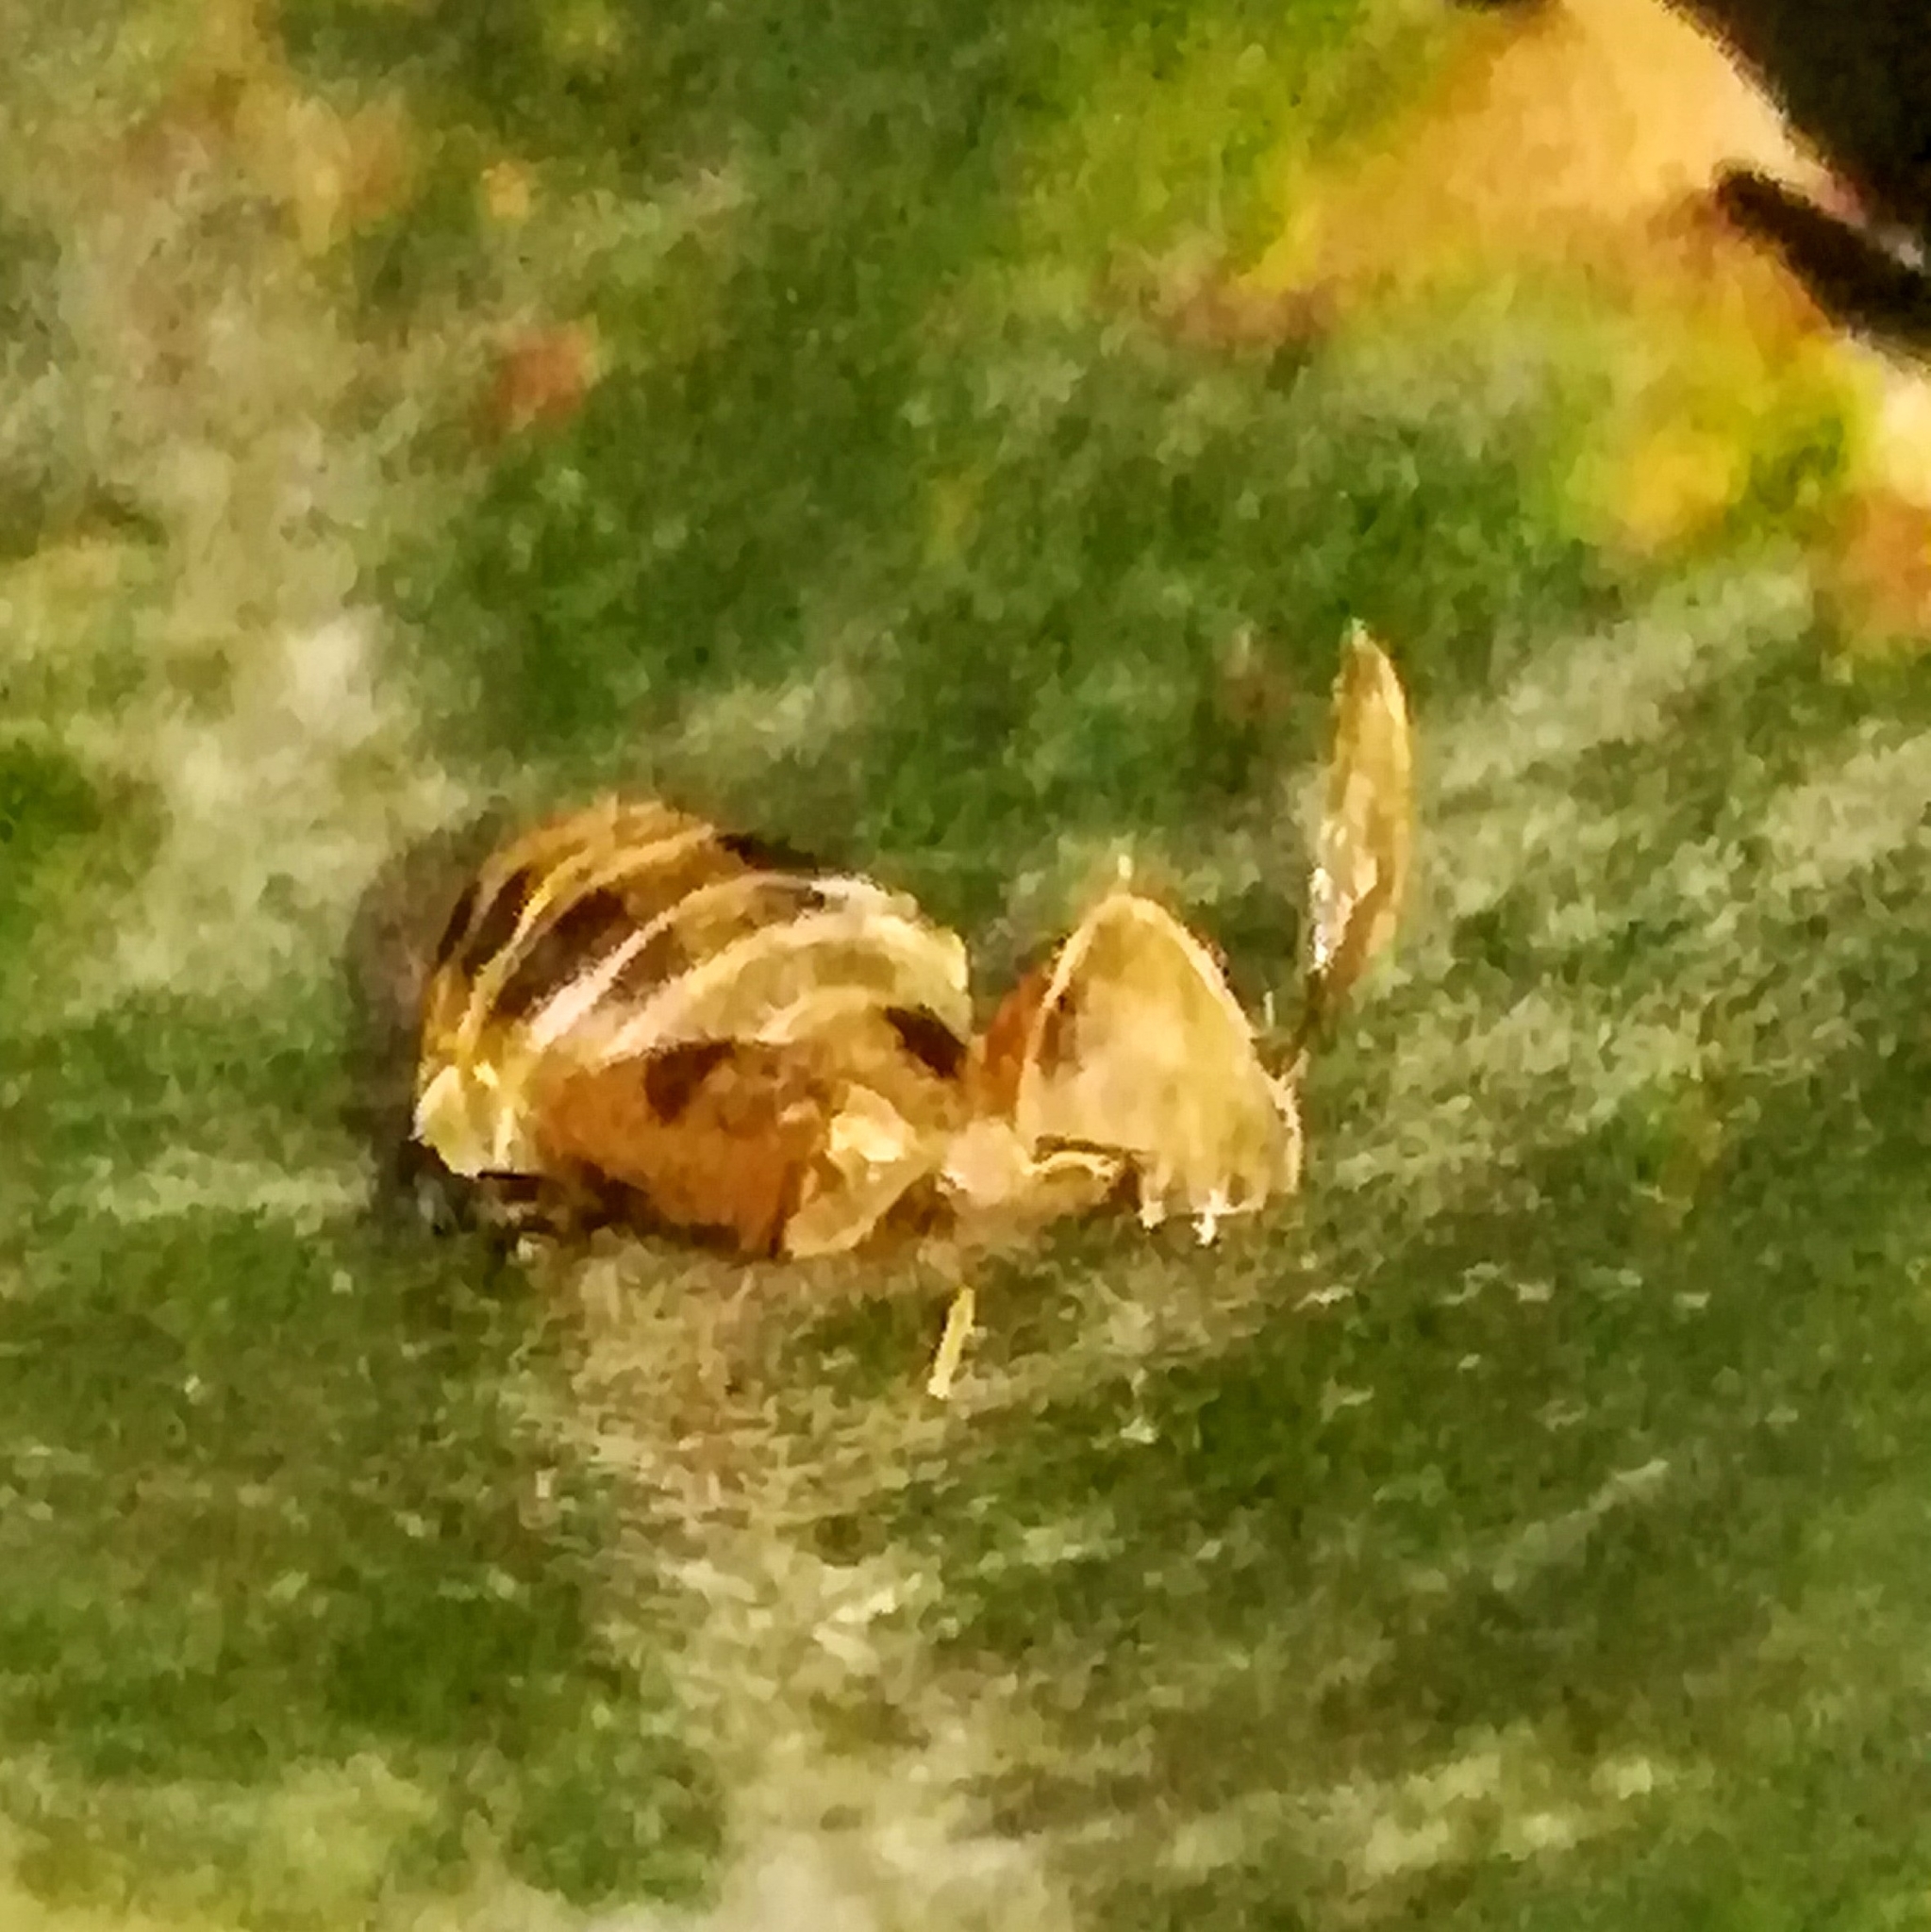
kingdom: Animalia
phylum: Arthropoda
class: Insecta
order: Coleoptera
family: Coccinellidae
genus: Harmonia
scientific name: Harmonia axyridis
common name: Harlequin ladybird
